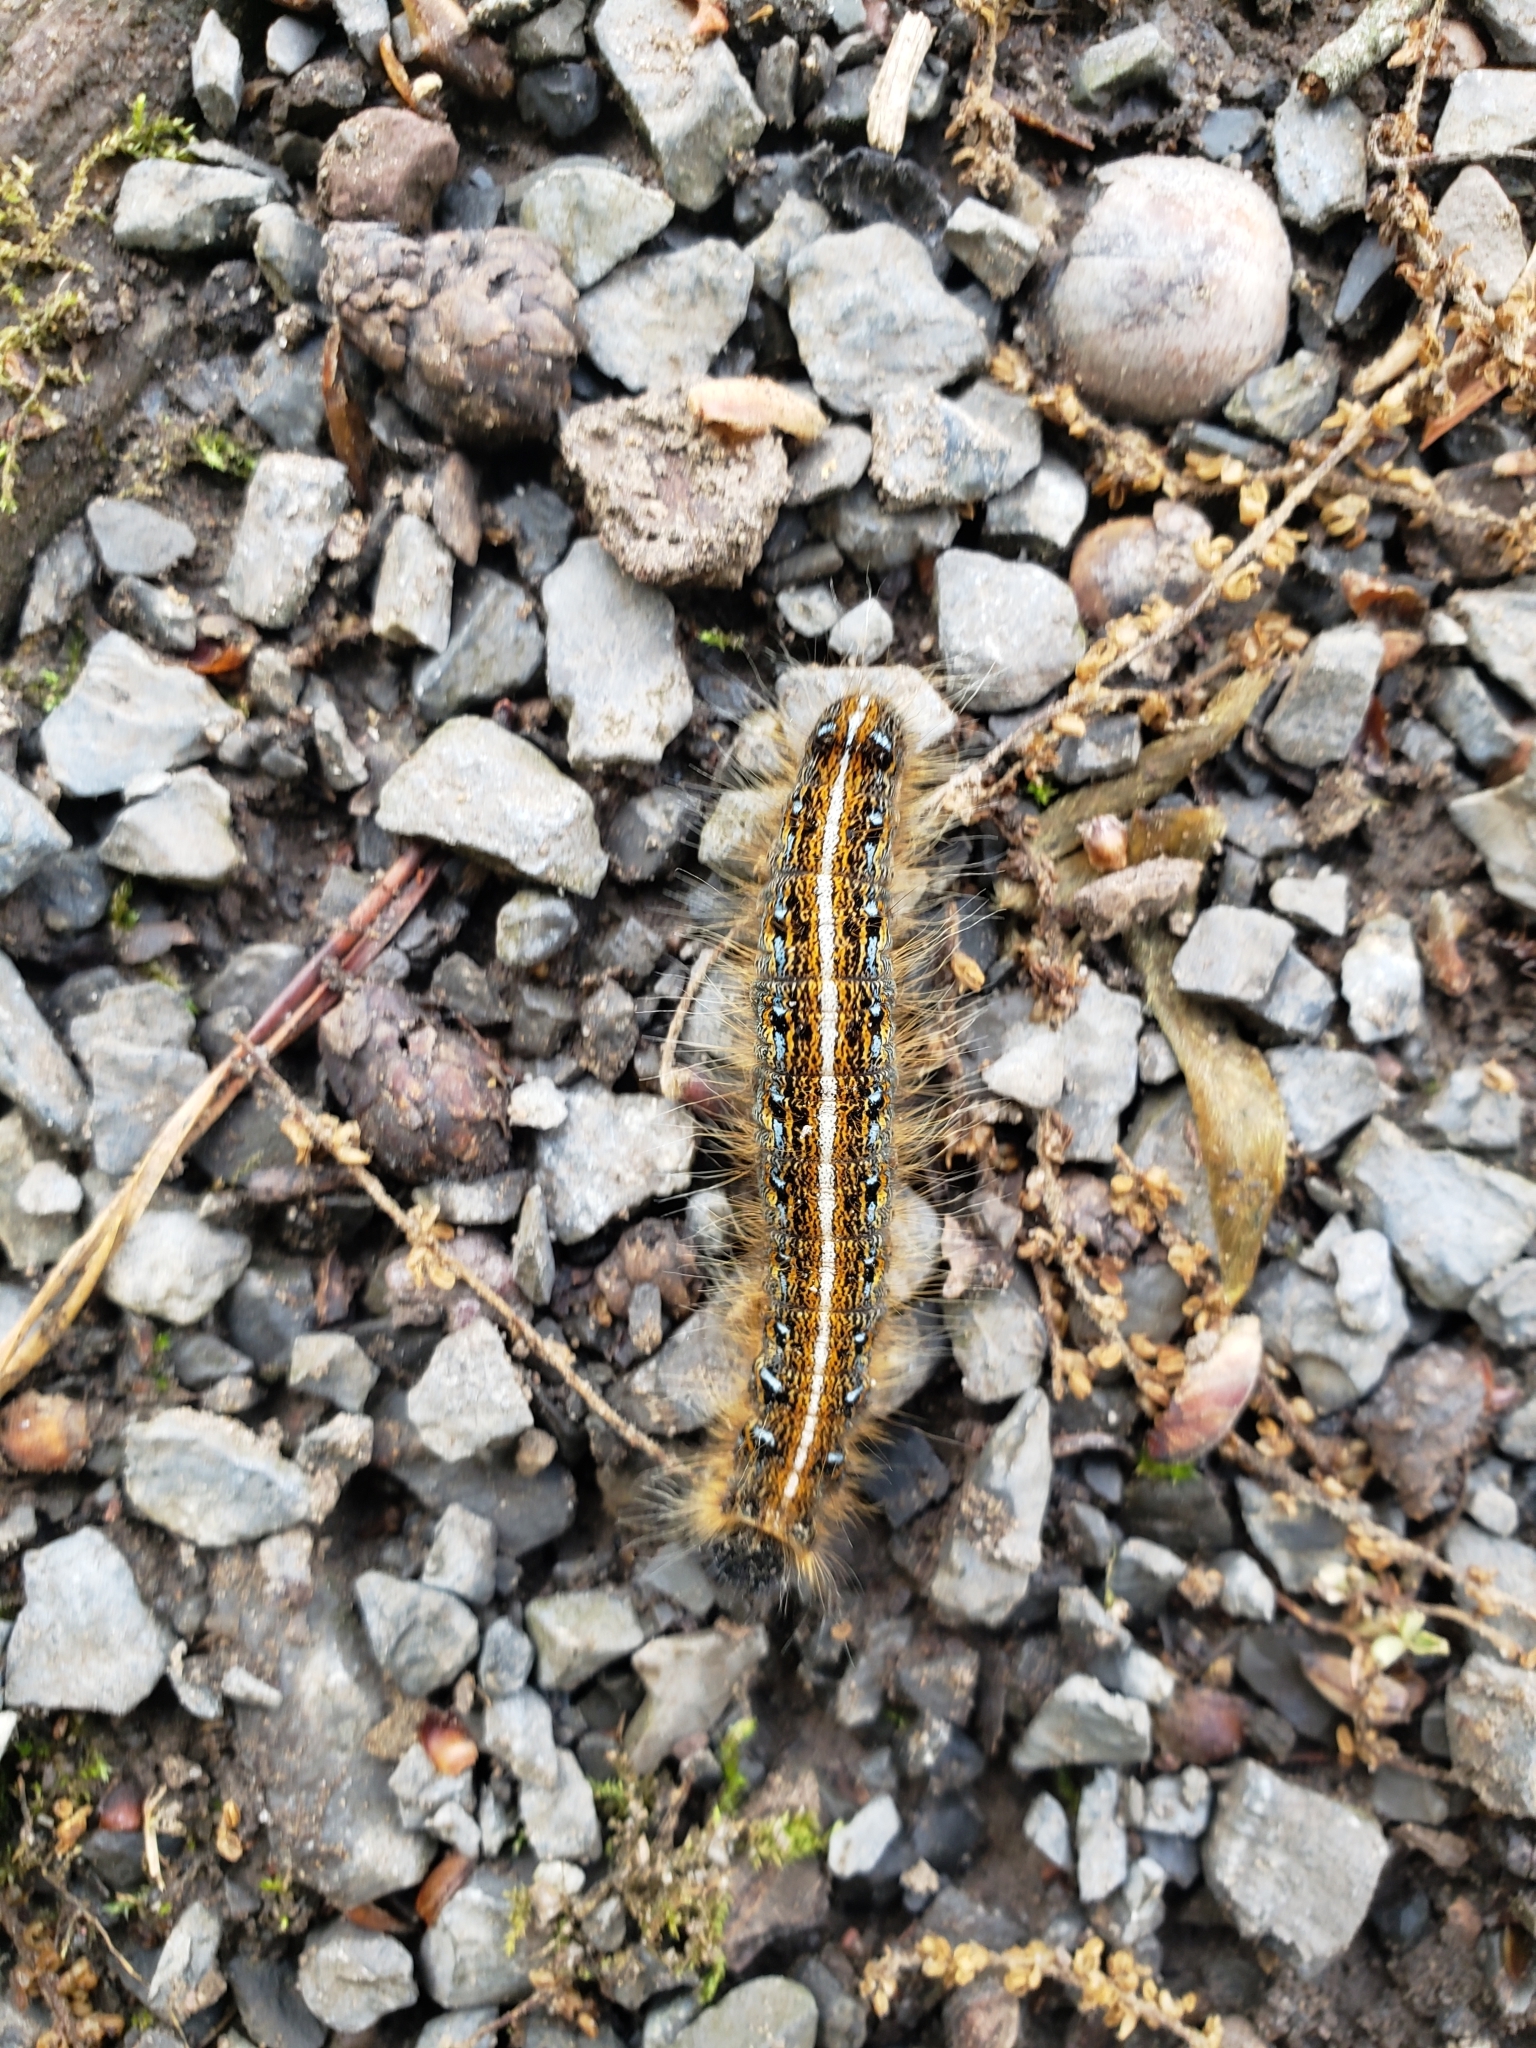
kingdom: Animalia
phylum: Arthropoda
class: Insecta
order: Lepidoptera
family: Lasiocampidae
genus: Malacosoma
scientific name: Malacosoma americana
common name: Eastern tent caterpillar moth
